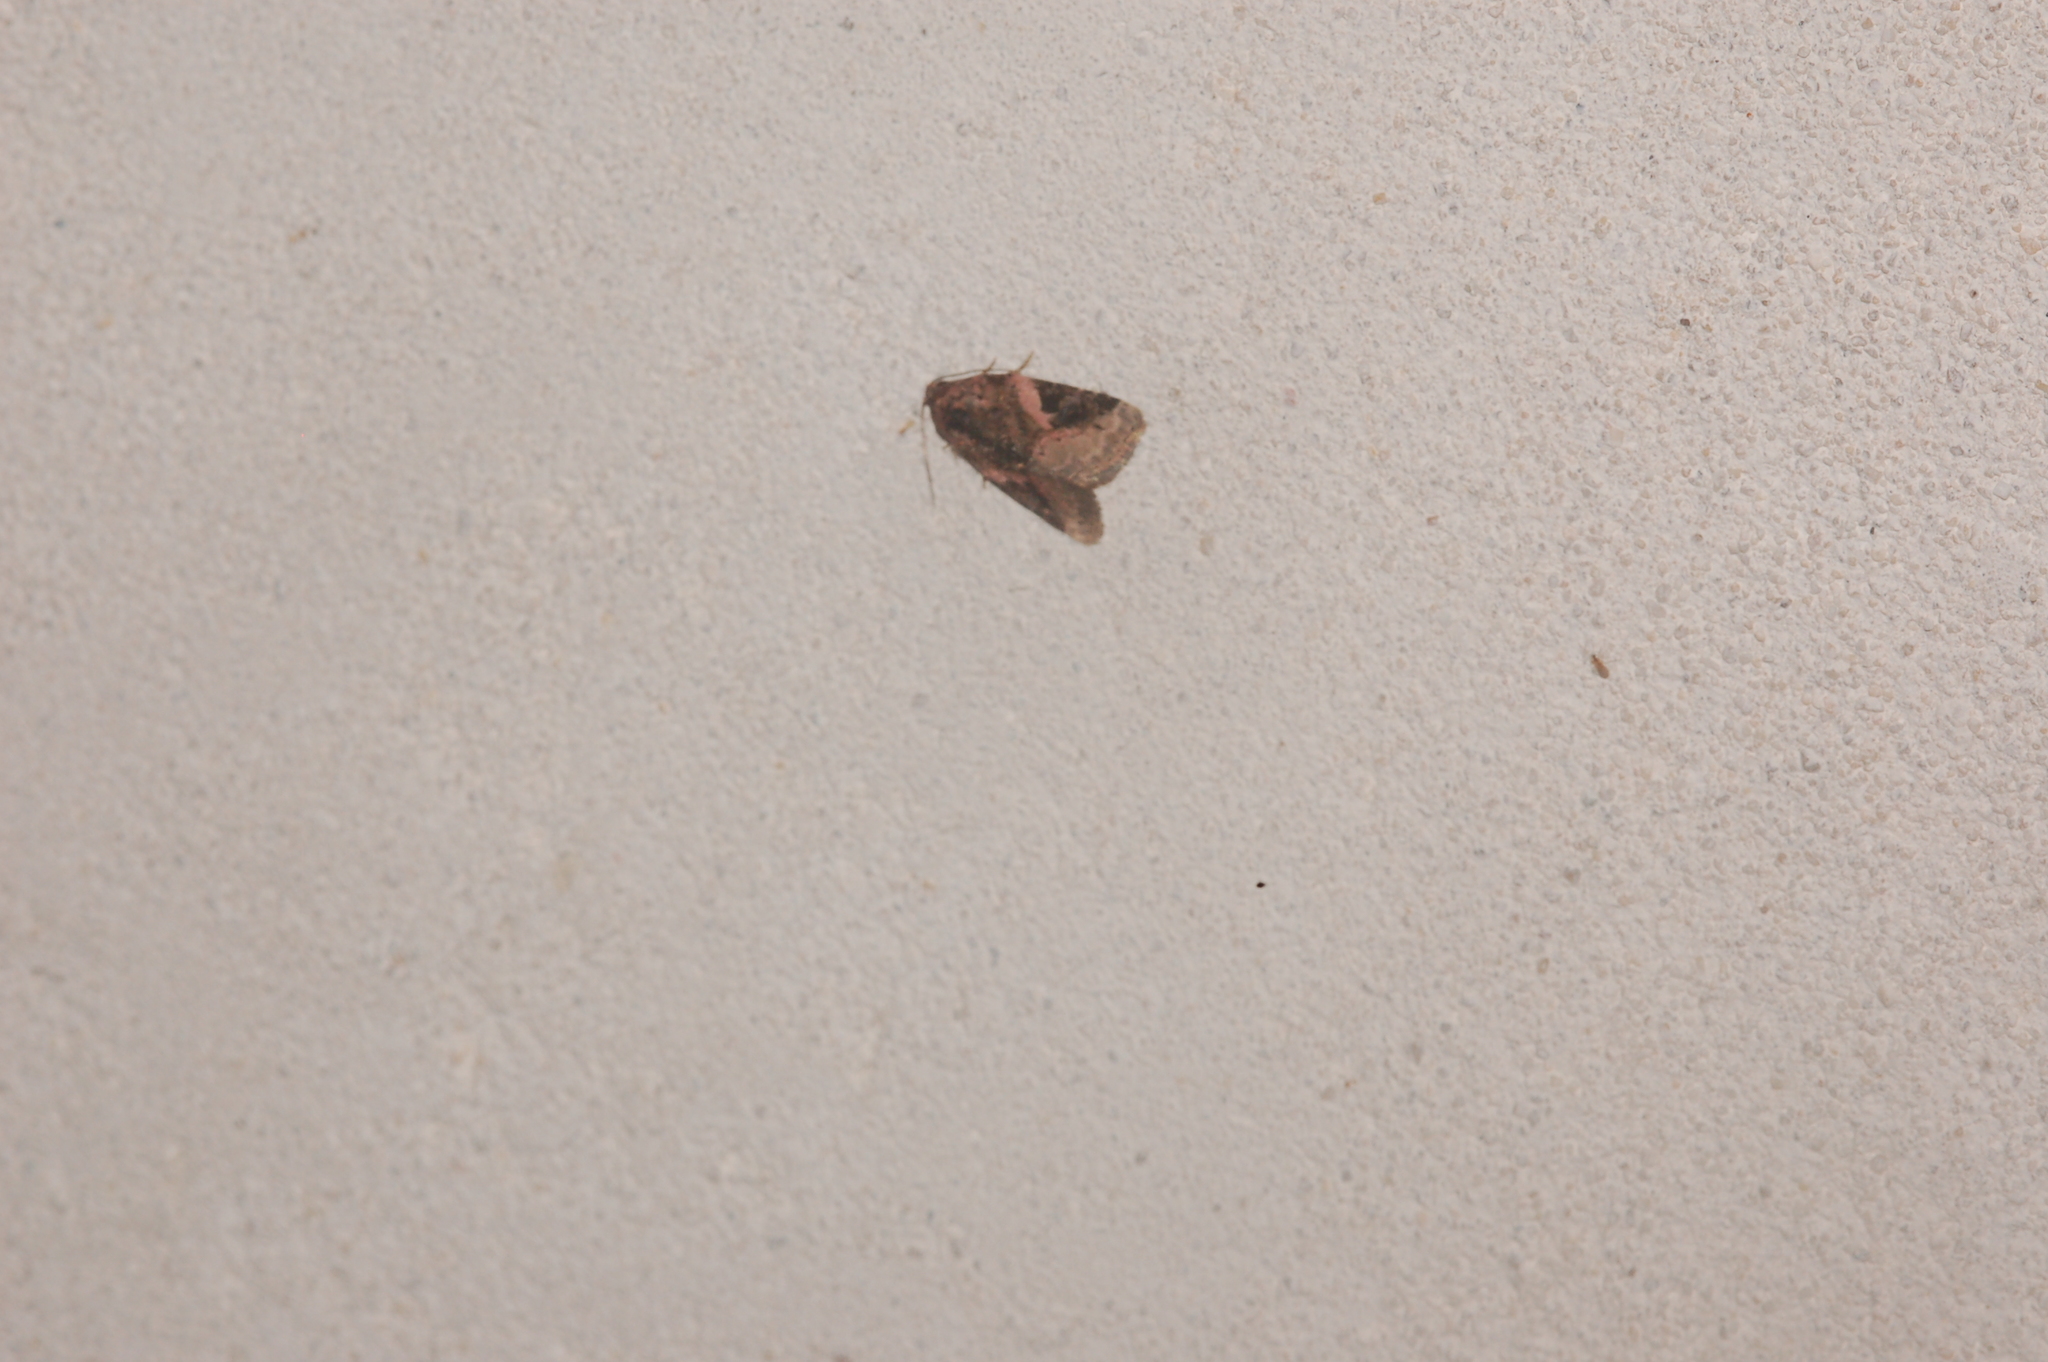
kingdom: Animalia
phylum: Arthropoda
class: Insecta
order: Lepidoptera
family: Noctuidae
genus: Pseudeustrotia
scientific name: Pseudeustrotia carneola
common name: Pink-barred lithacodia moth
